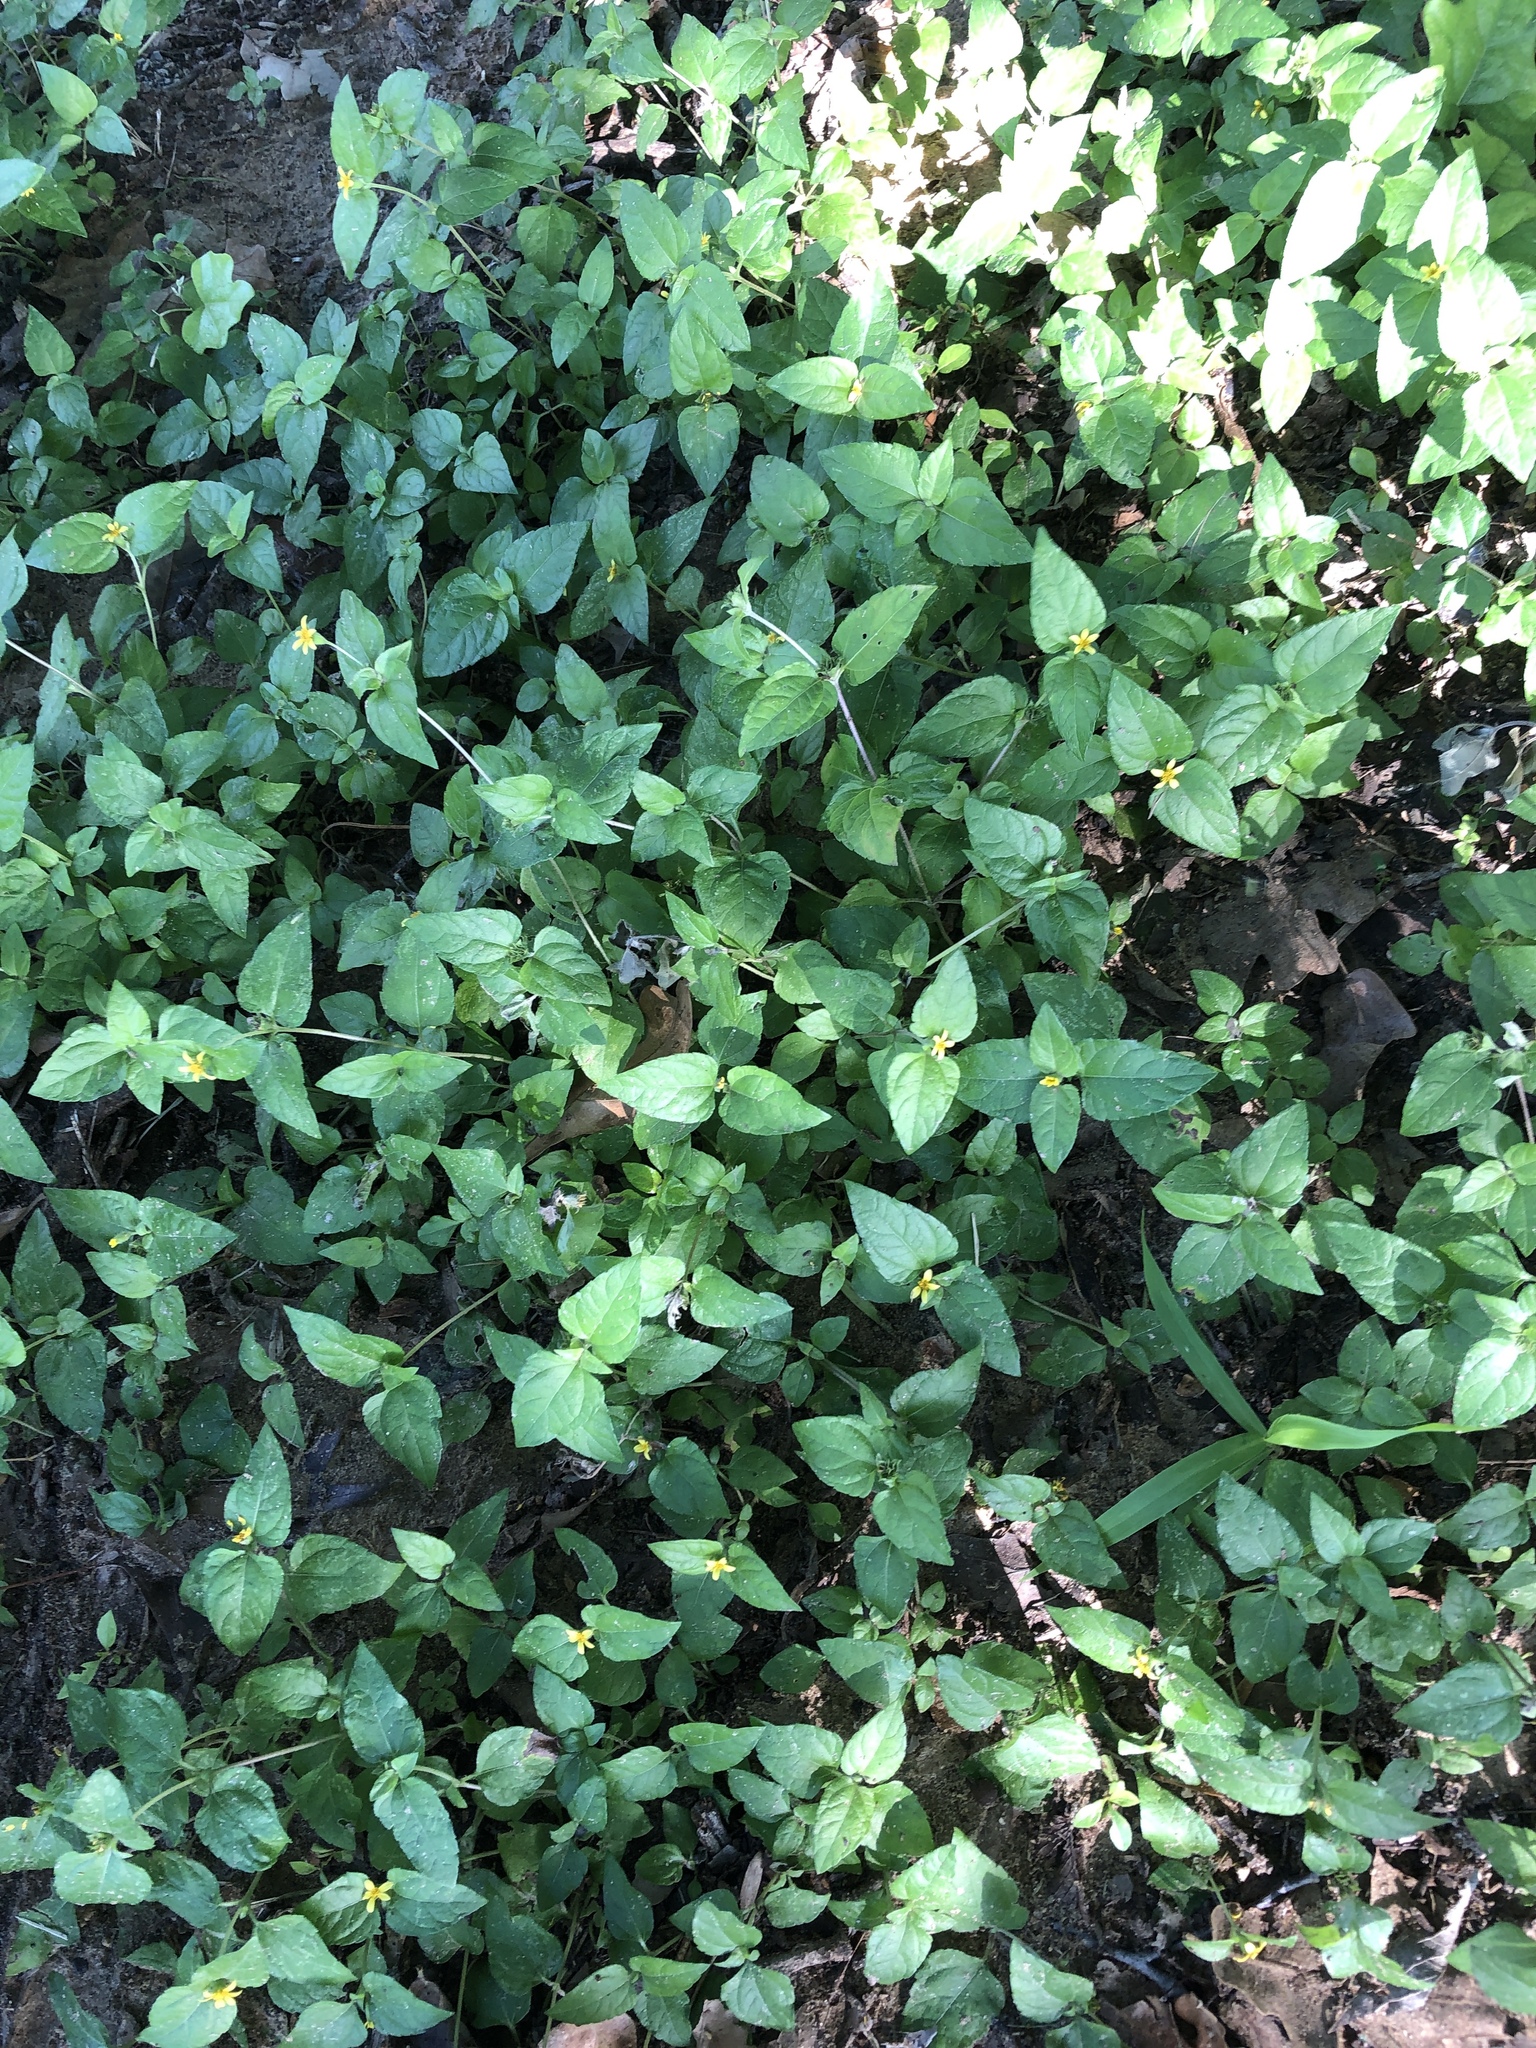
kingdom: Plantae
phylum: Tracheophyta
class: Magnoliopsida
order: Asterales
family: Asteraceae
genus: Calyptocarpus
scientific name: Calyptocarpus vialis
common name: Straggler daisy
